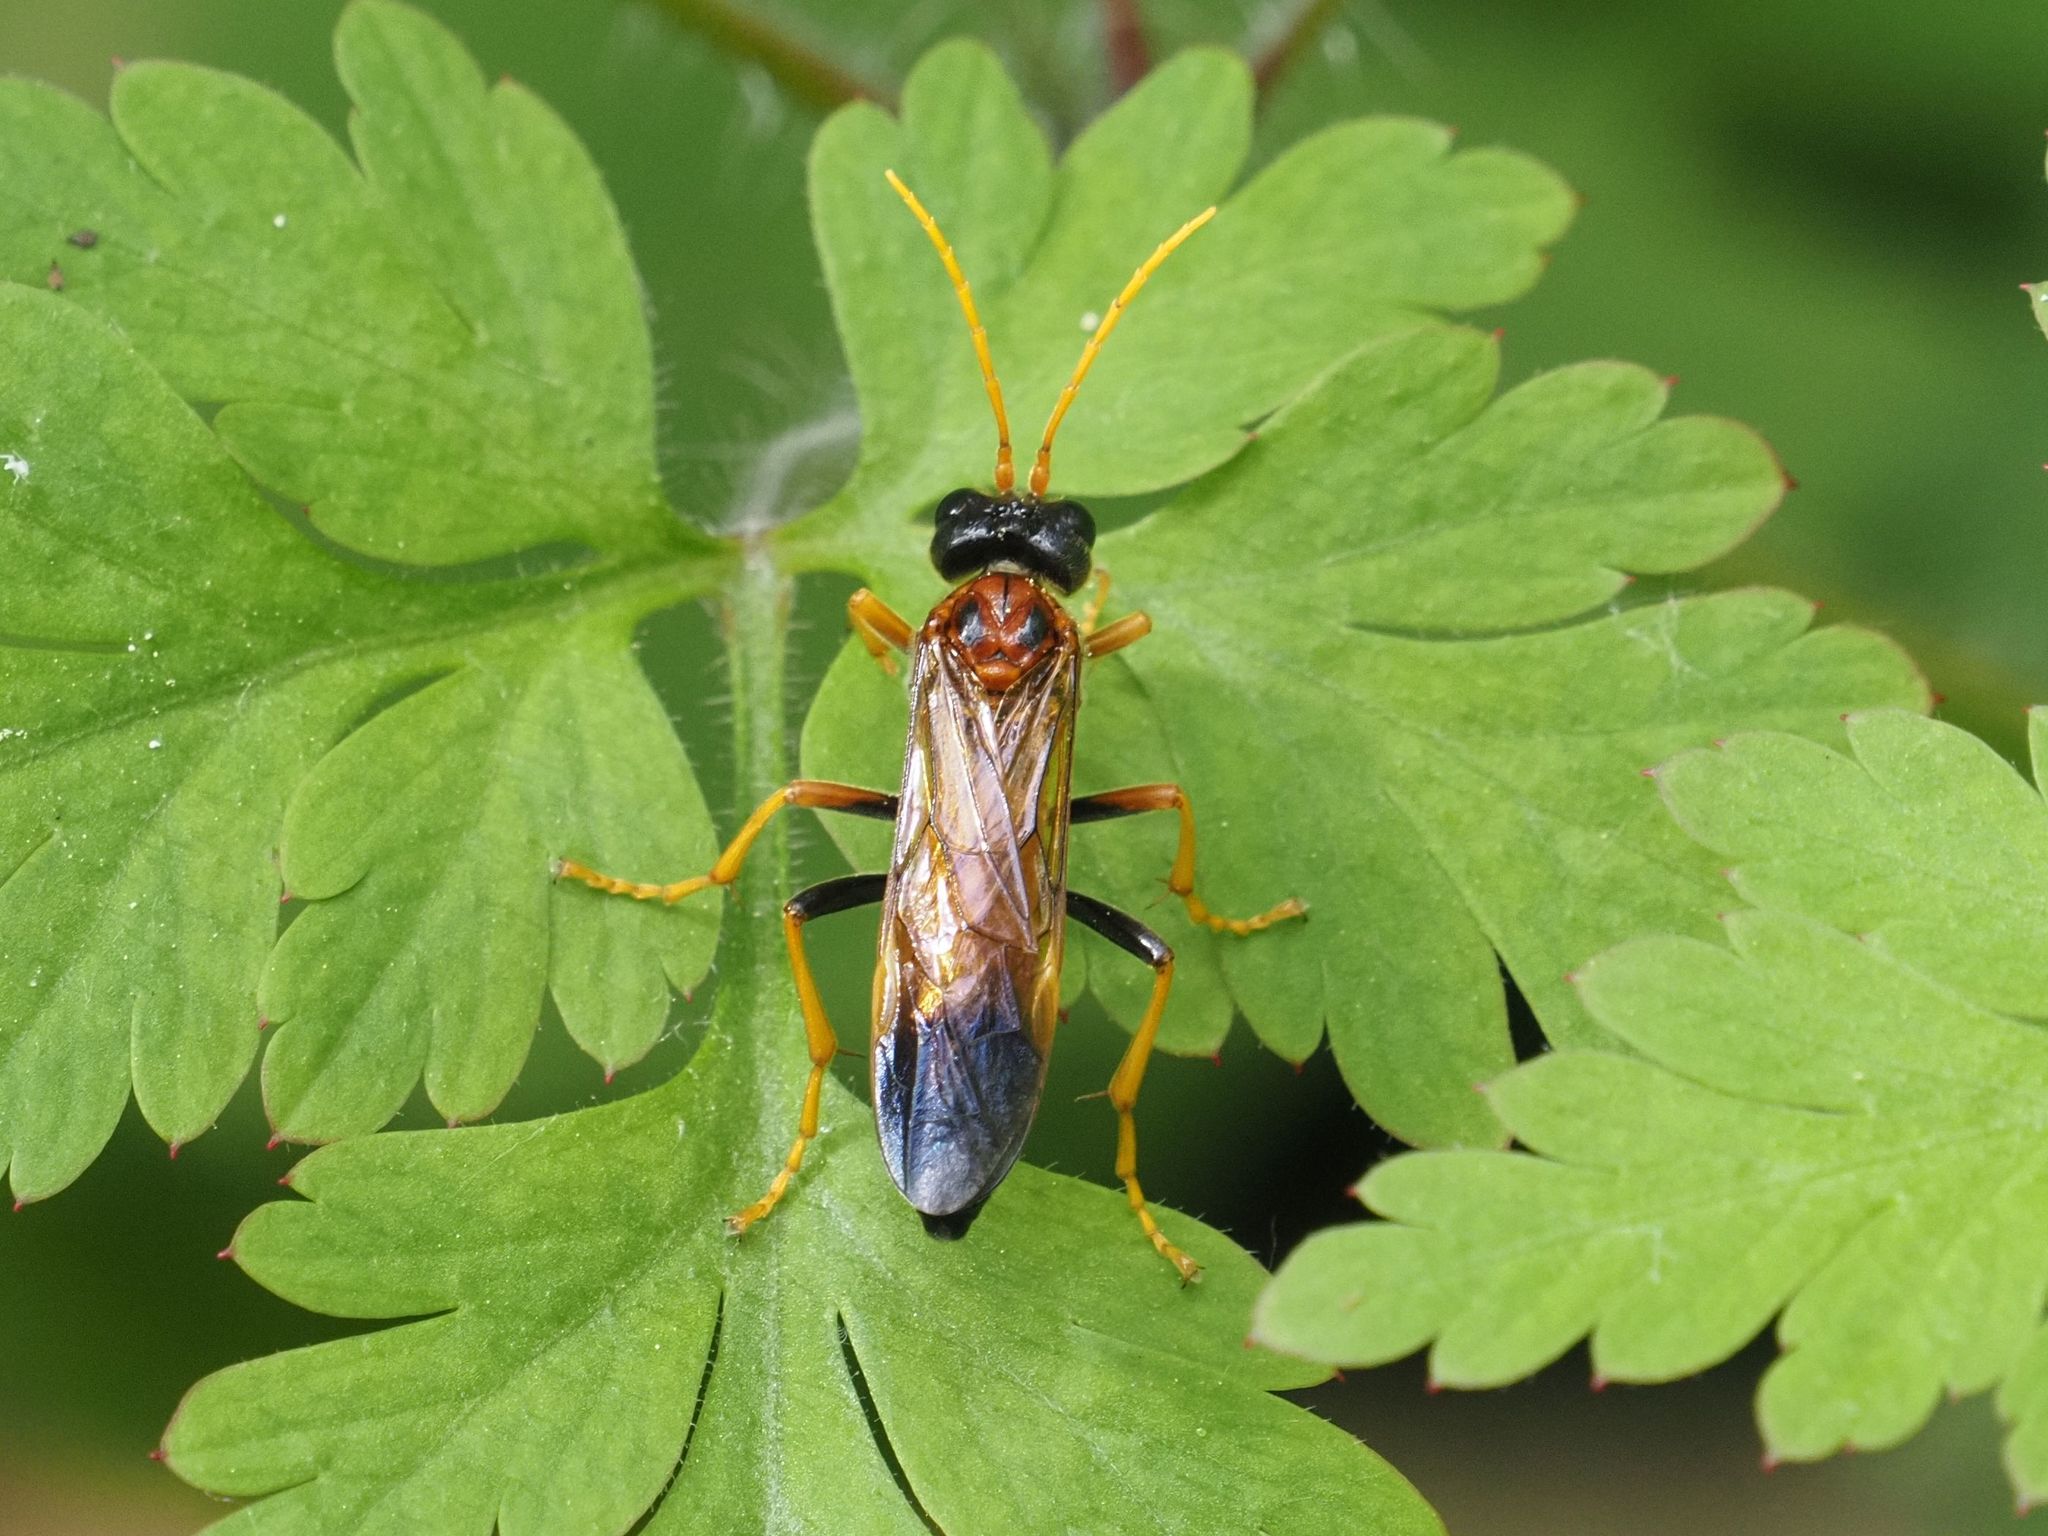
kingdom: Animalia
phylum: Arthropoda
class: Insecta
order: Hymenoptera
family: Tenthredinidae
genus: Tenthredo
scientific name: Tenthredo campestris
